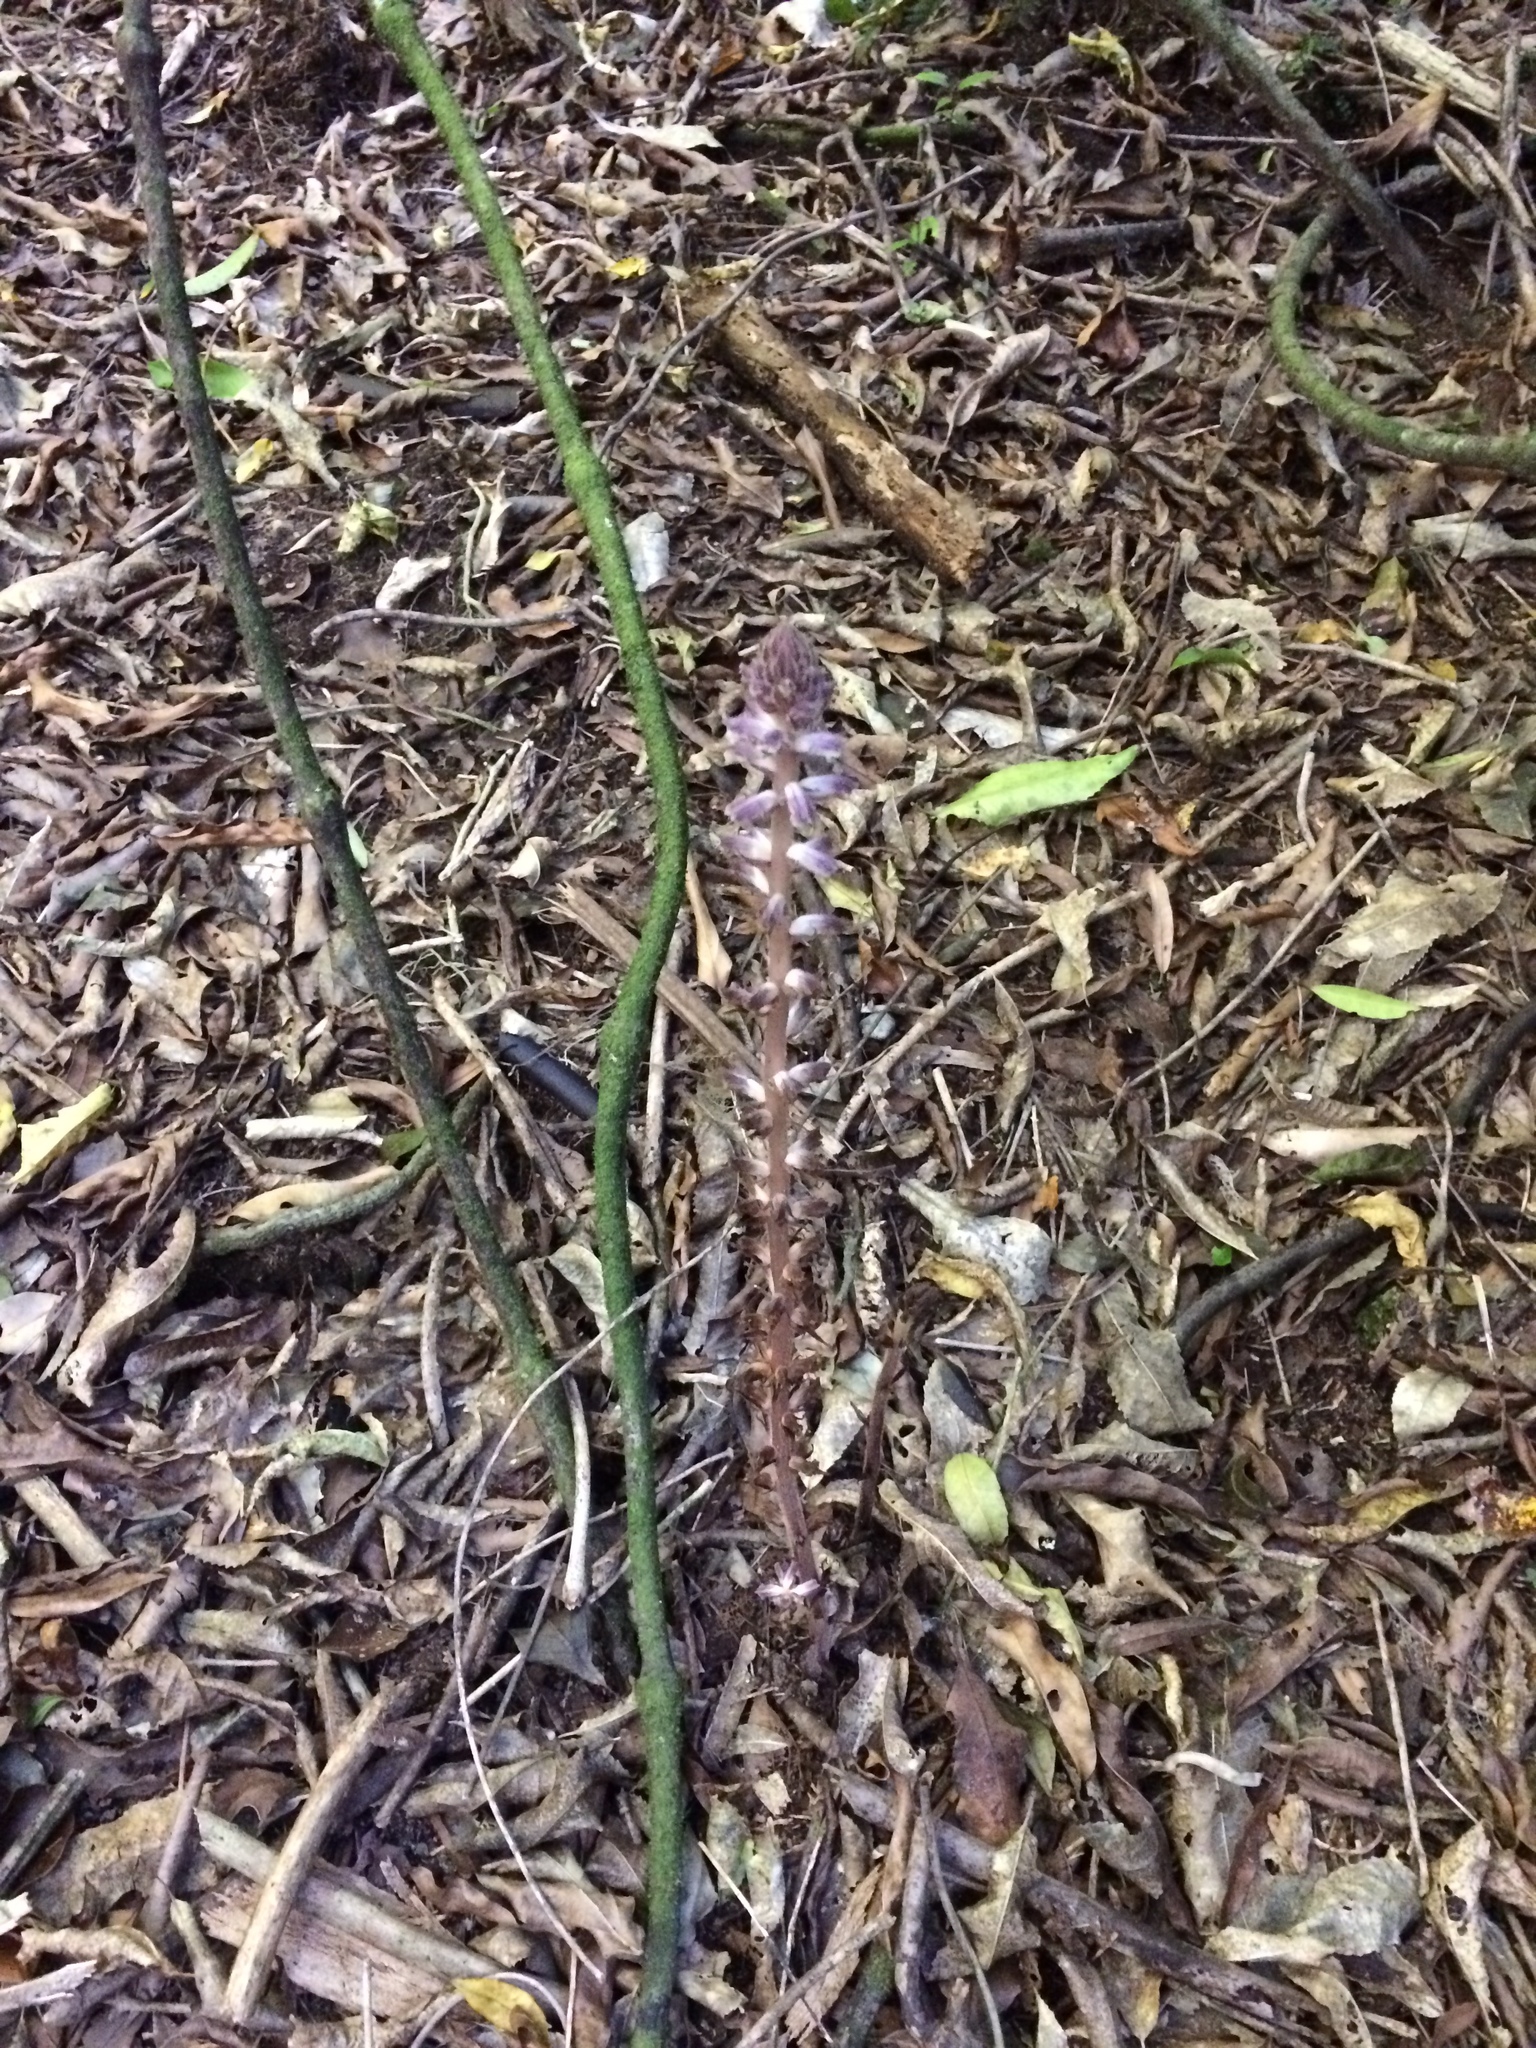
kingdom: Plantae
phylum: Tracheophyta
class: Magnoliopsida
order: Lamiales
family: Orobanchaceae
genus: Orobanche
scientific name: Orobanche minor
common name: Common broomrape
